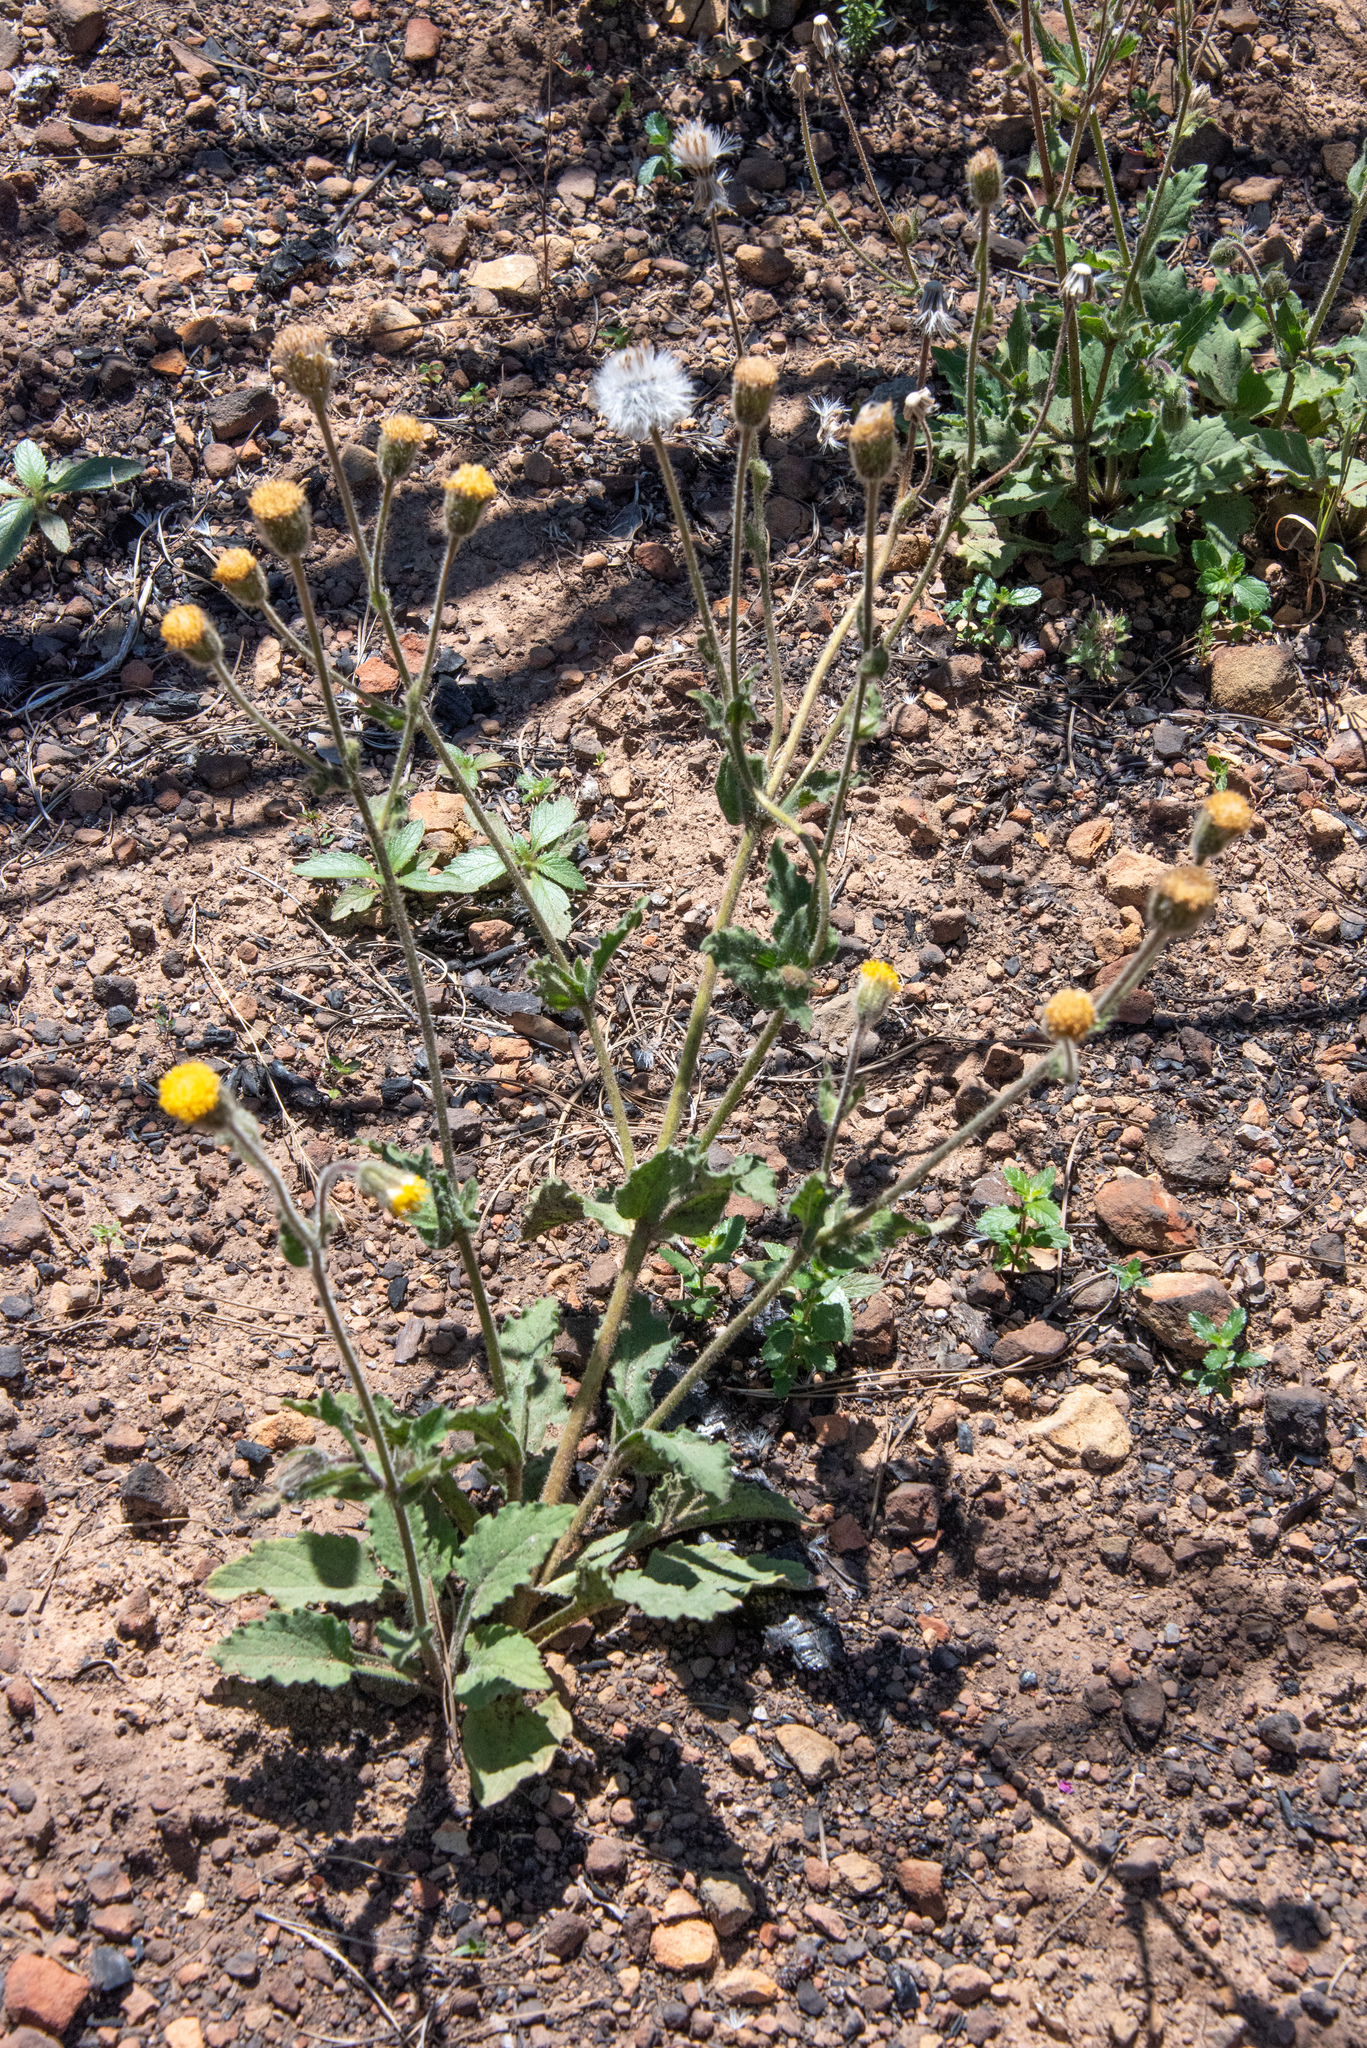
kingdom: Plantae
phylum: Tracheophyta
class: Magnoliopsida
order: Asterales
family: Asteraceae
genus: Arnica
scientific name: Arnica discoidea
